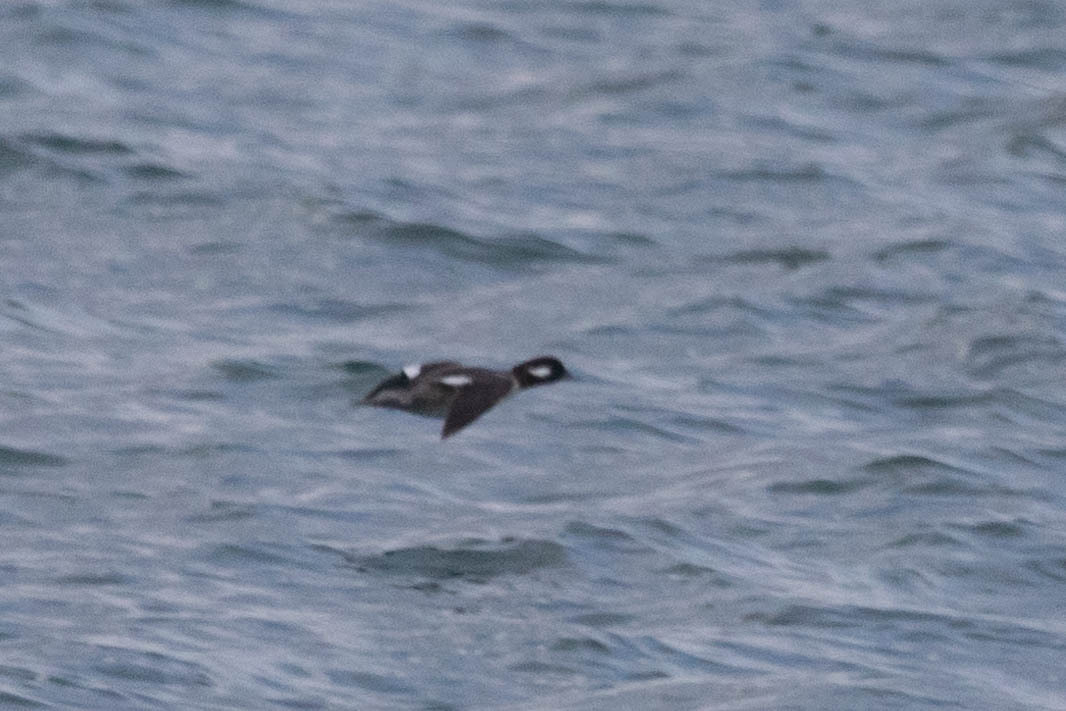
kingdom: Animalia
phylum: Chordata
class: Aves
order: Anseriformes
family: Anatidae
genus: Bucephala
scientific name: Bucephala albeola
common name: Bufflehead
